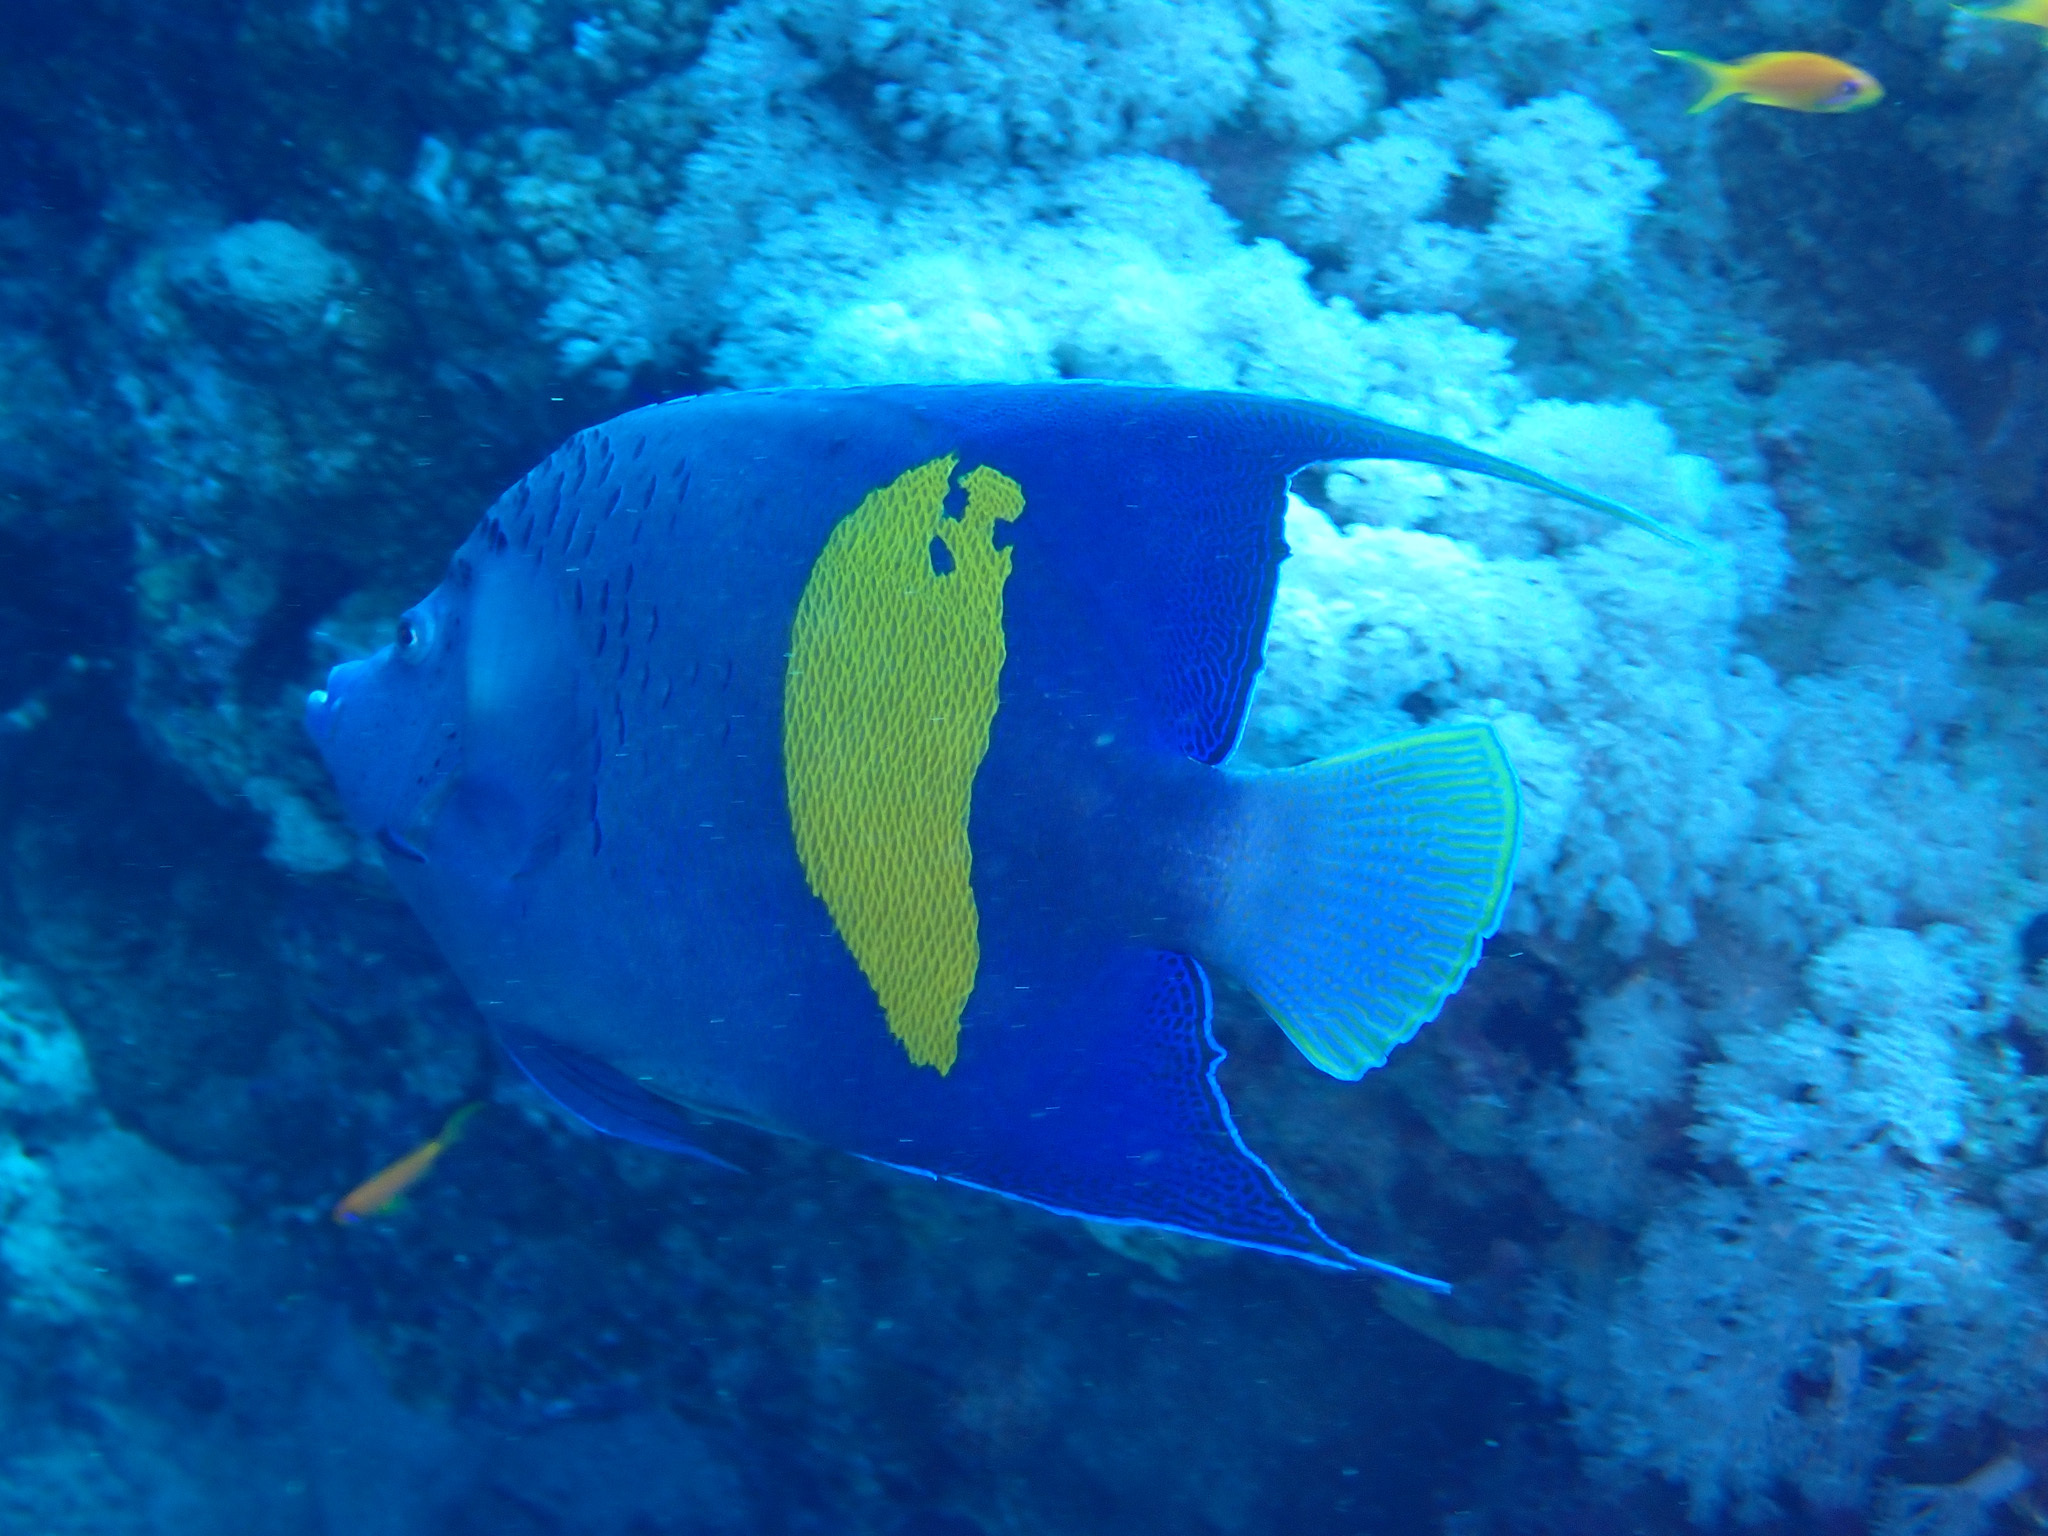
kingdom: Animalia
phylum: Chordata
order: Perciformes
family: Pomacanthidae
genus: Pomacanthus
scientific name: Pomacanthus maculosus
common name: Yellowbar angelfish
